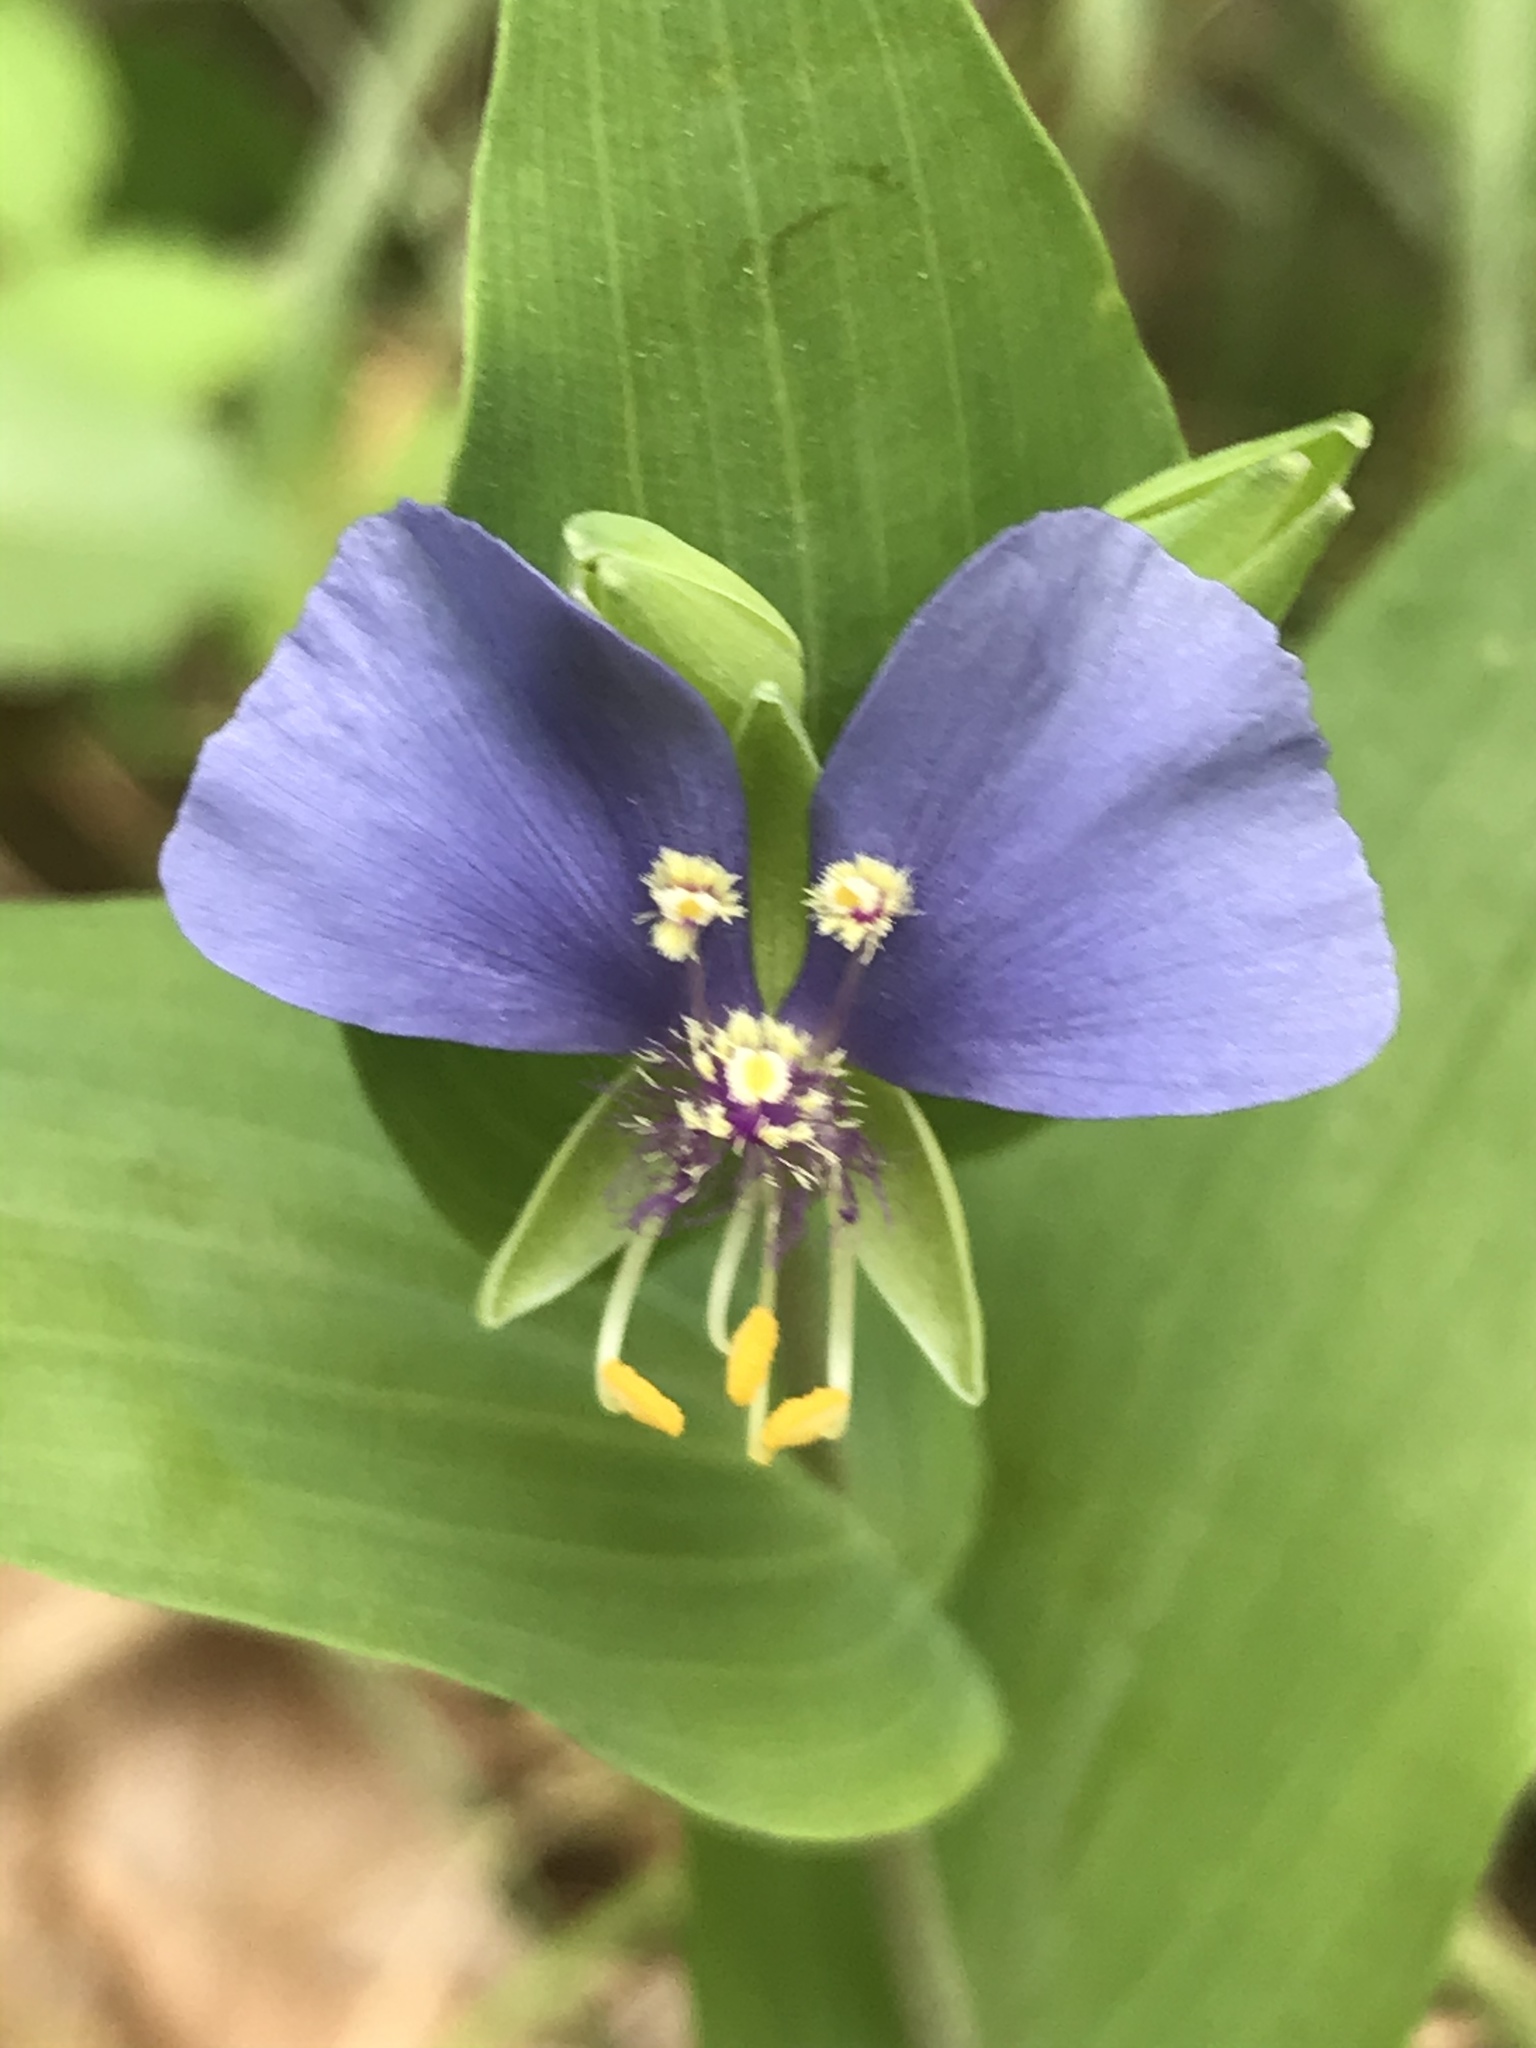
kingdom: Plantae
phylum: Tracheophyta
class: Liliopsida
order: Commelinales
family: Commelinaceae
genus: Tinantia
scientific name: Tinantia anomala
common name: False dayflower
